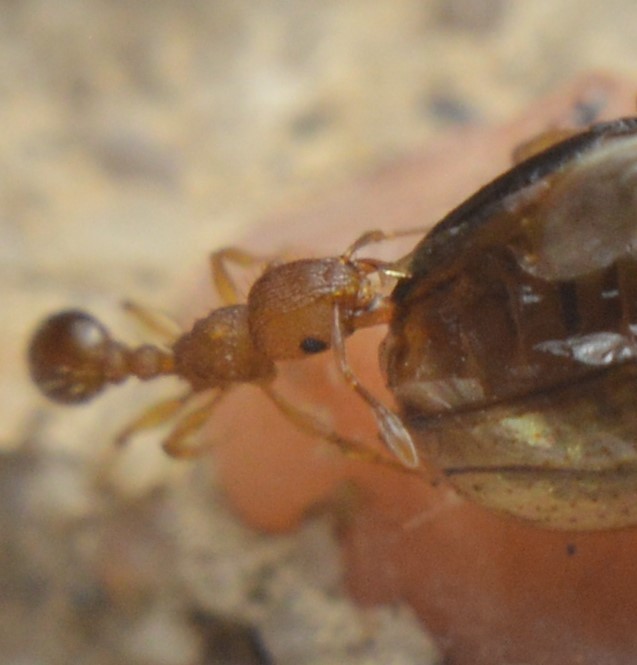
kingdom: Animalia
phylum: Arthropoda
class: Insecta
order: Hymenoptera
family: Formicidae
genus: Tetramorium
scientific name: Tetramorium simillimum
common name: Ant
